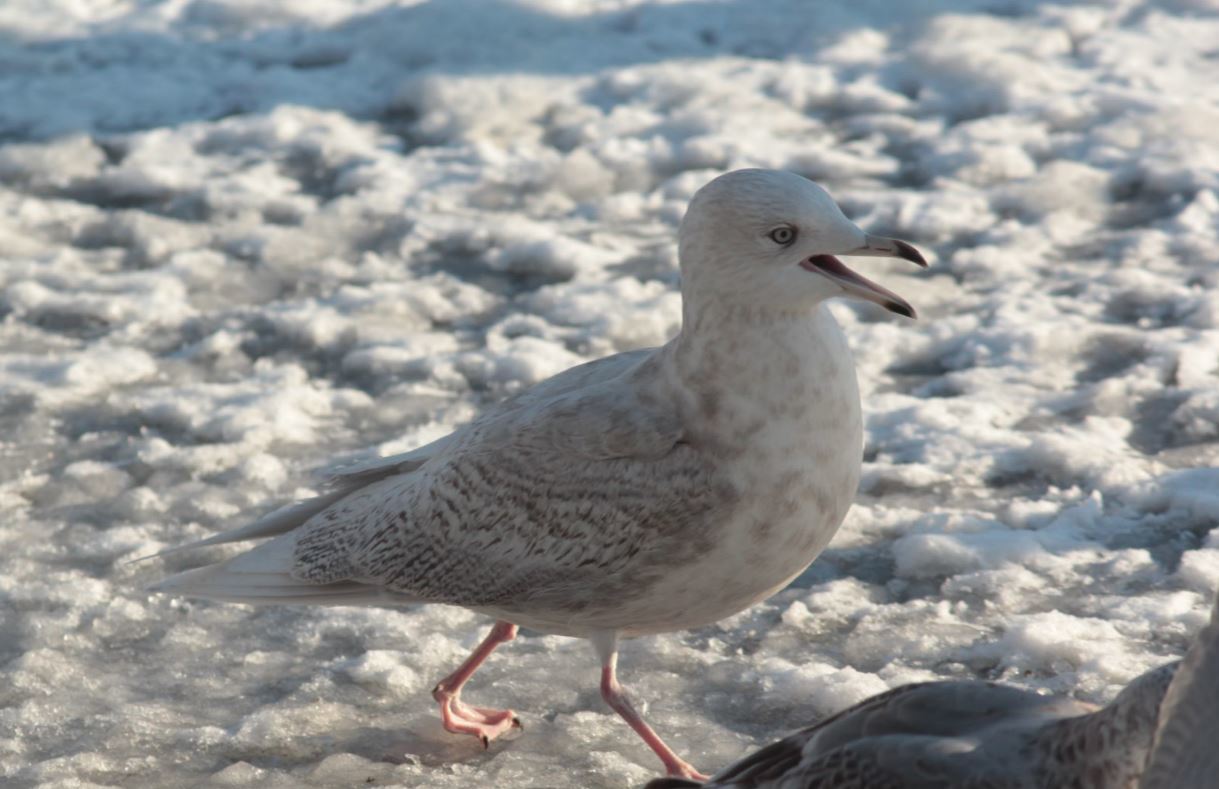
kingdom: Animalia
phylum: Chordata
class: Aves
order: Charadriiformes
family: Laridae
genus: Larus
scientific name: Larus glaucoides
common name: Iceland gull
